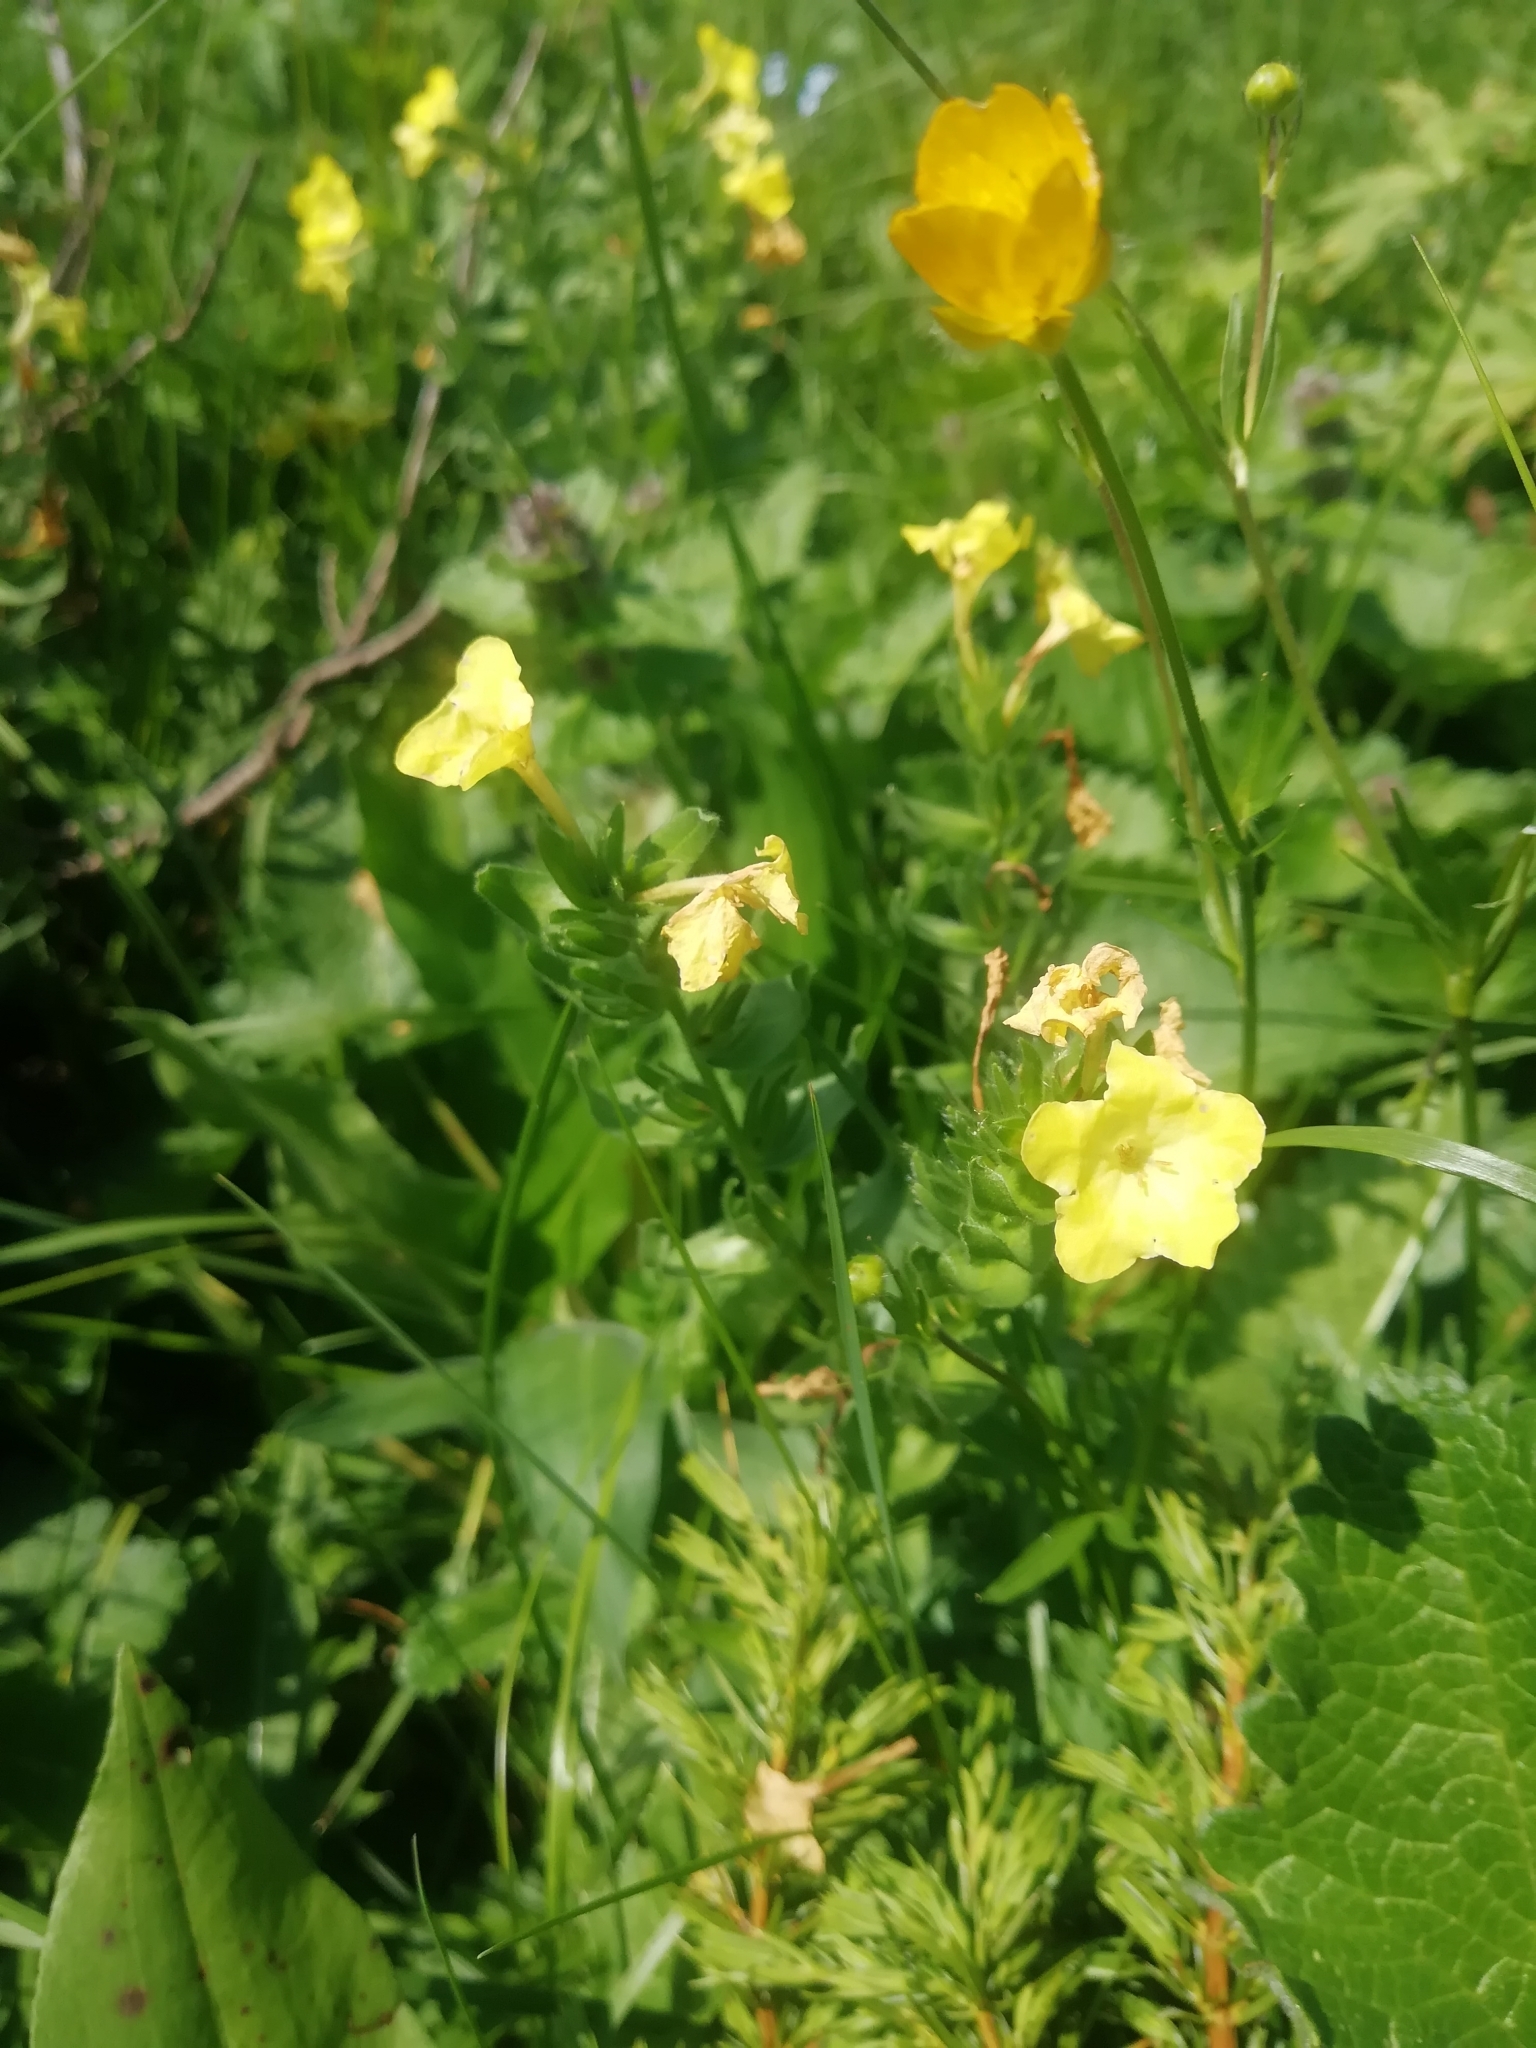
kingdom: Plantae
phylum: Tracheophyta
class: Magnoliopsida
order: Boraginales
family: Boraginaceae
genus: Huynhia
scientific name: Huynhia pulchra
